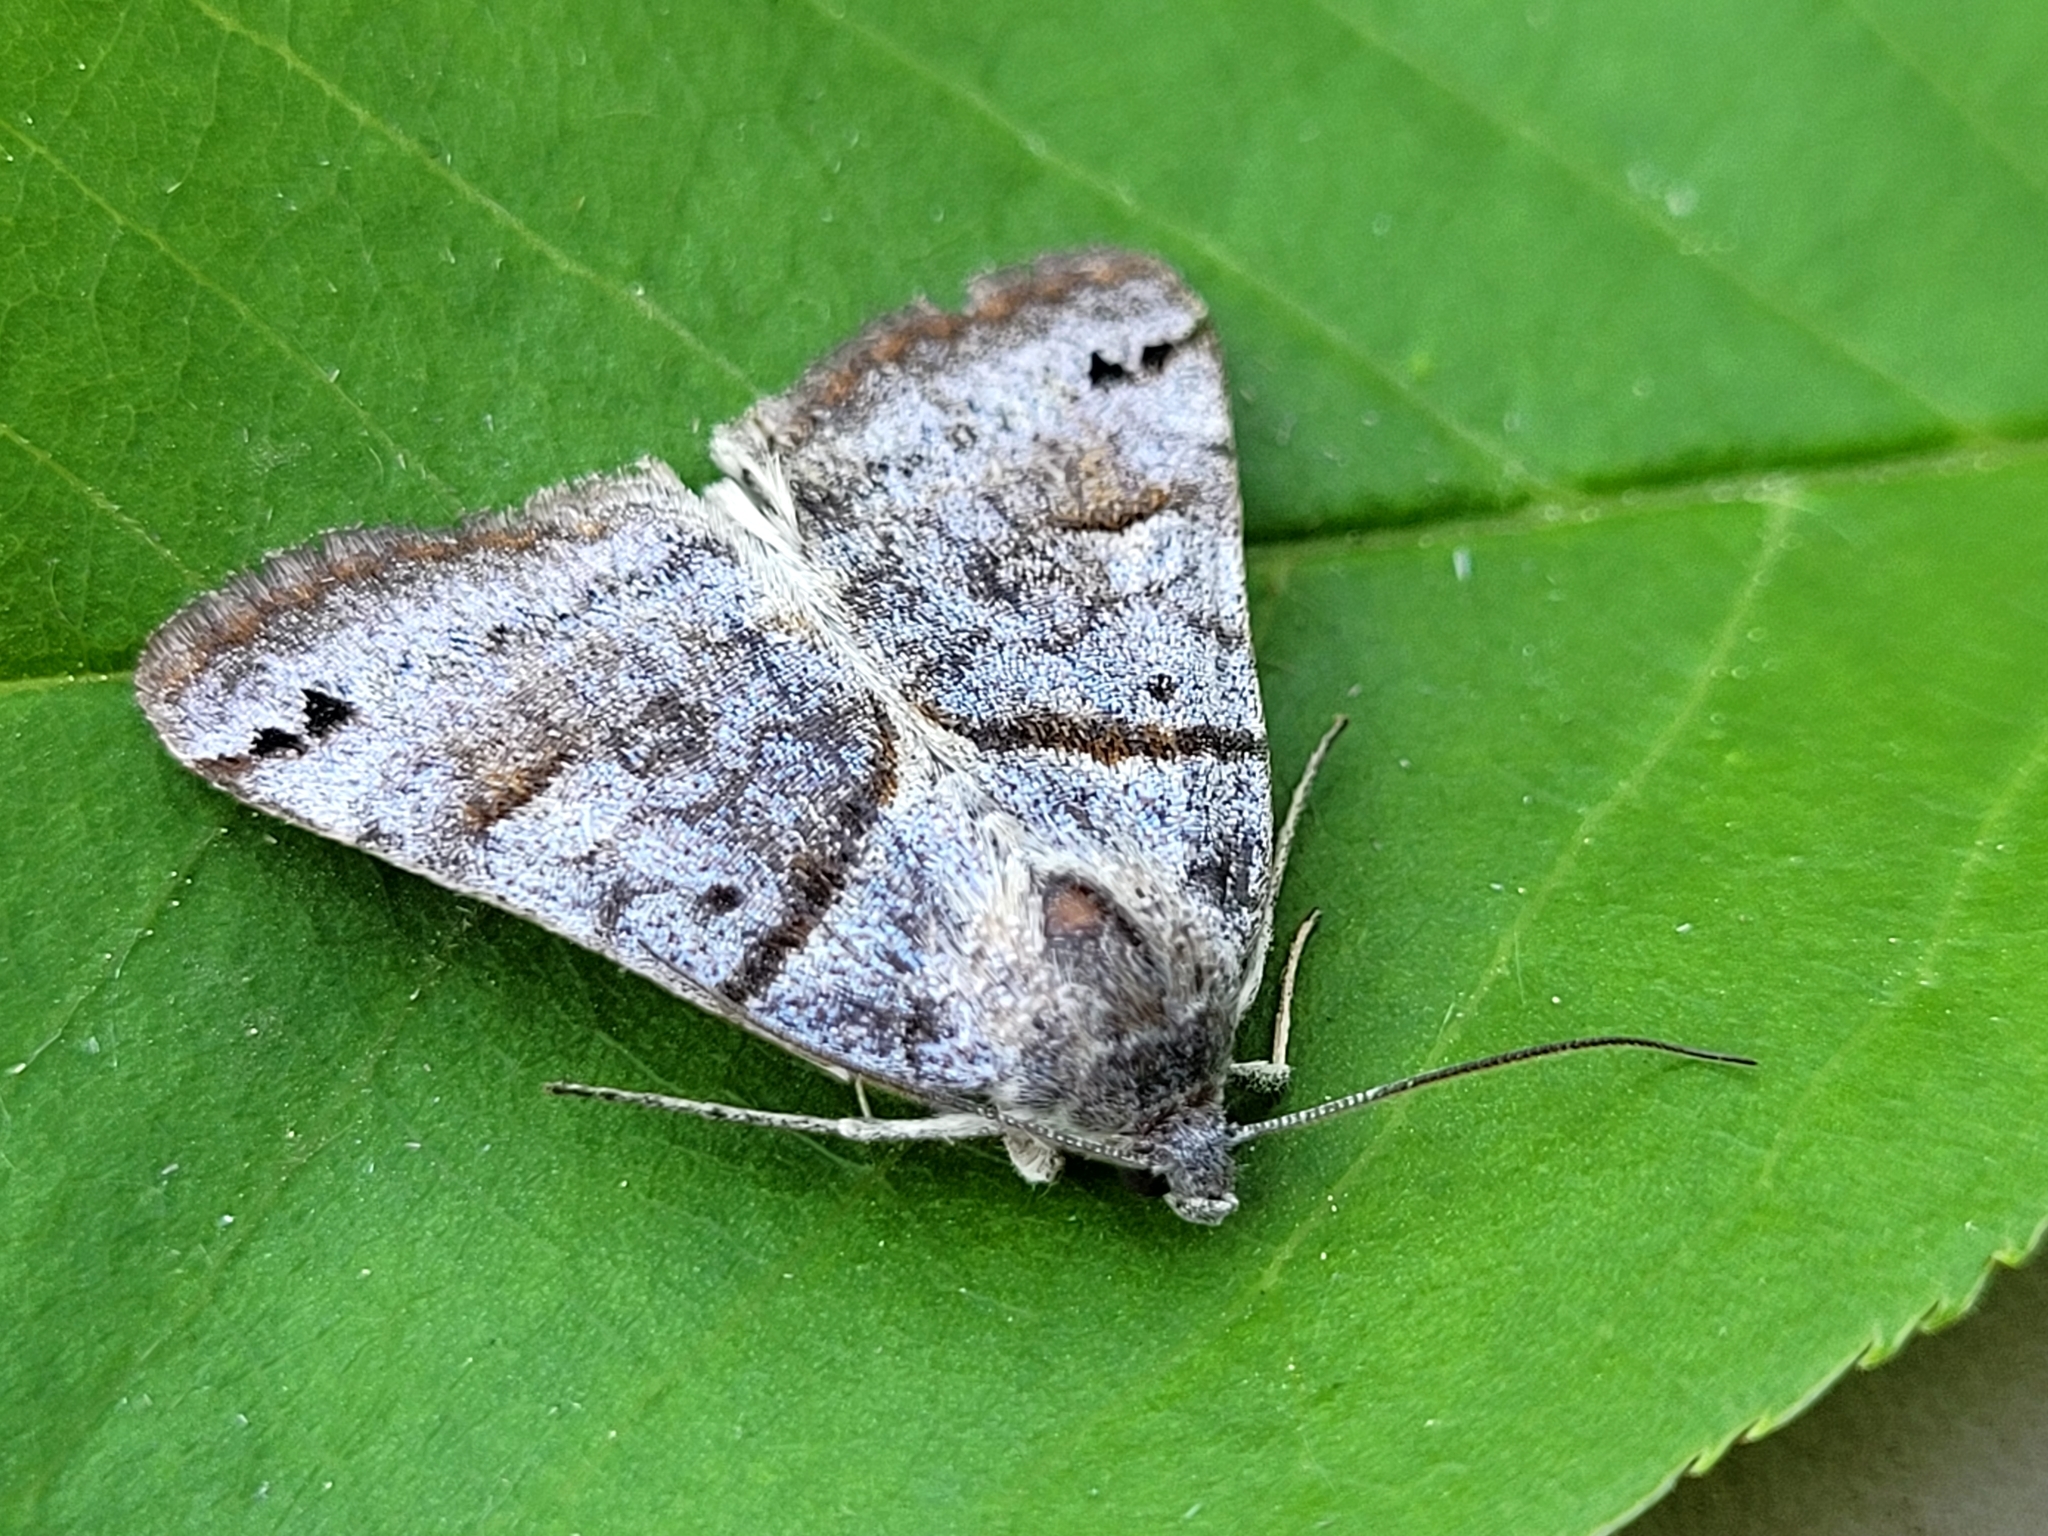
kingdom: Animalia
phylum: Arthropoda
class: Insecta
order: Lepidoptera
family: Erebidae
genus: Caenurgina
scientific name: Caenurgina crassiuscula
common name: Double-barred
